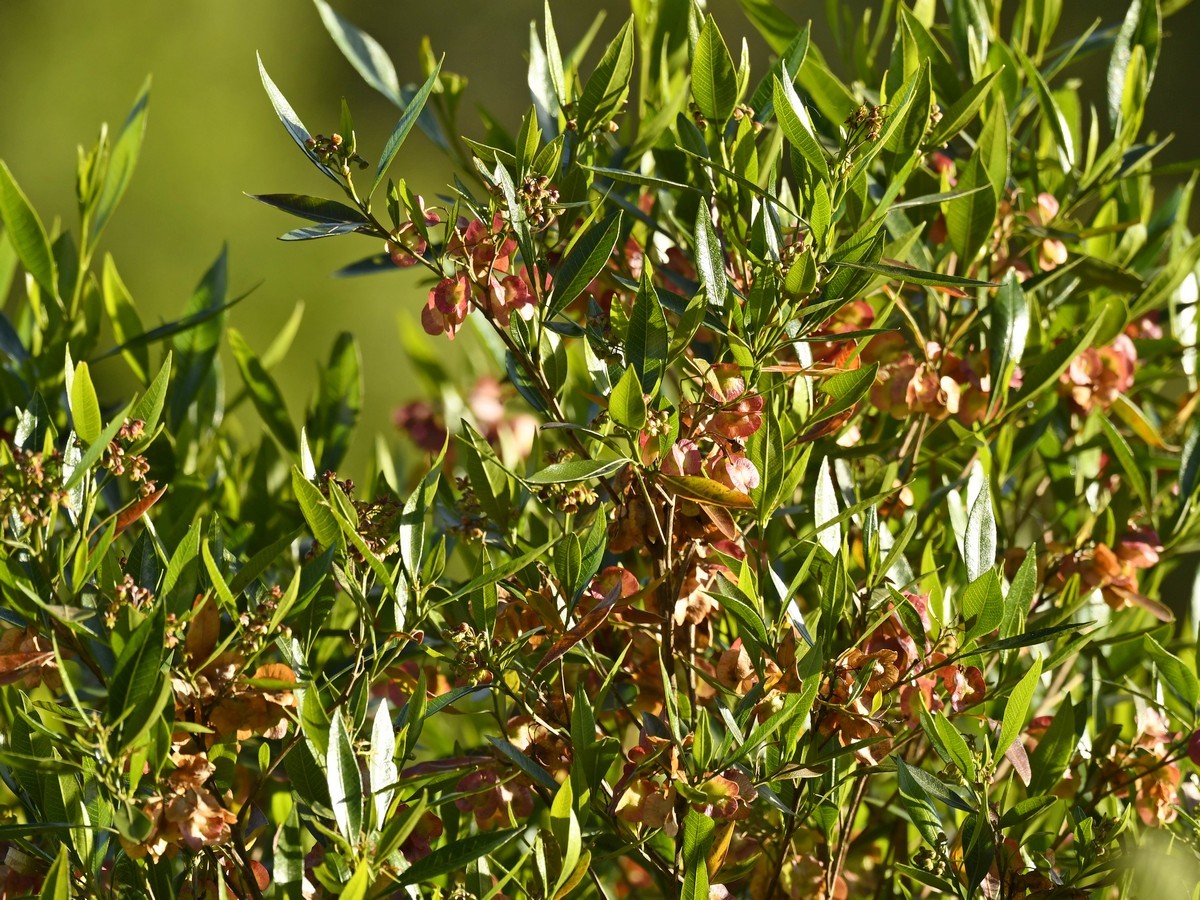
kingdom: Plantae
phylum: Tracheophyta
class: Magnoliopsida
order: Sapindales
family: Sapindaceae
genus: Dodonaea
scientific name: Dodonaea viscosa
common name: Hopbush
